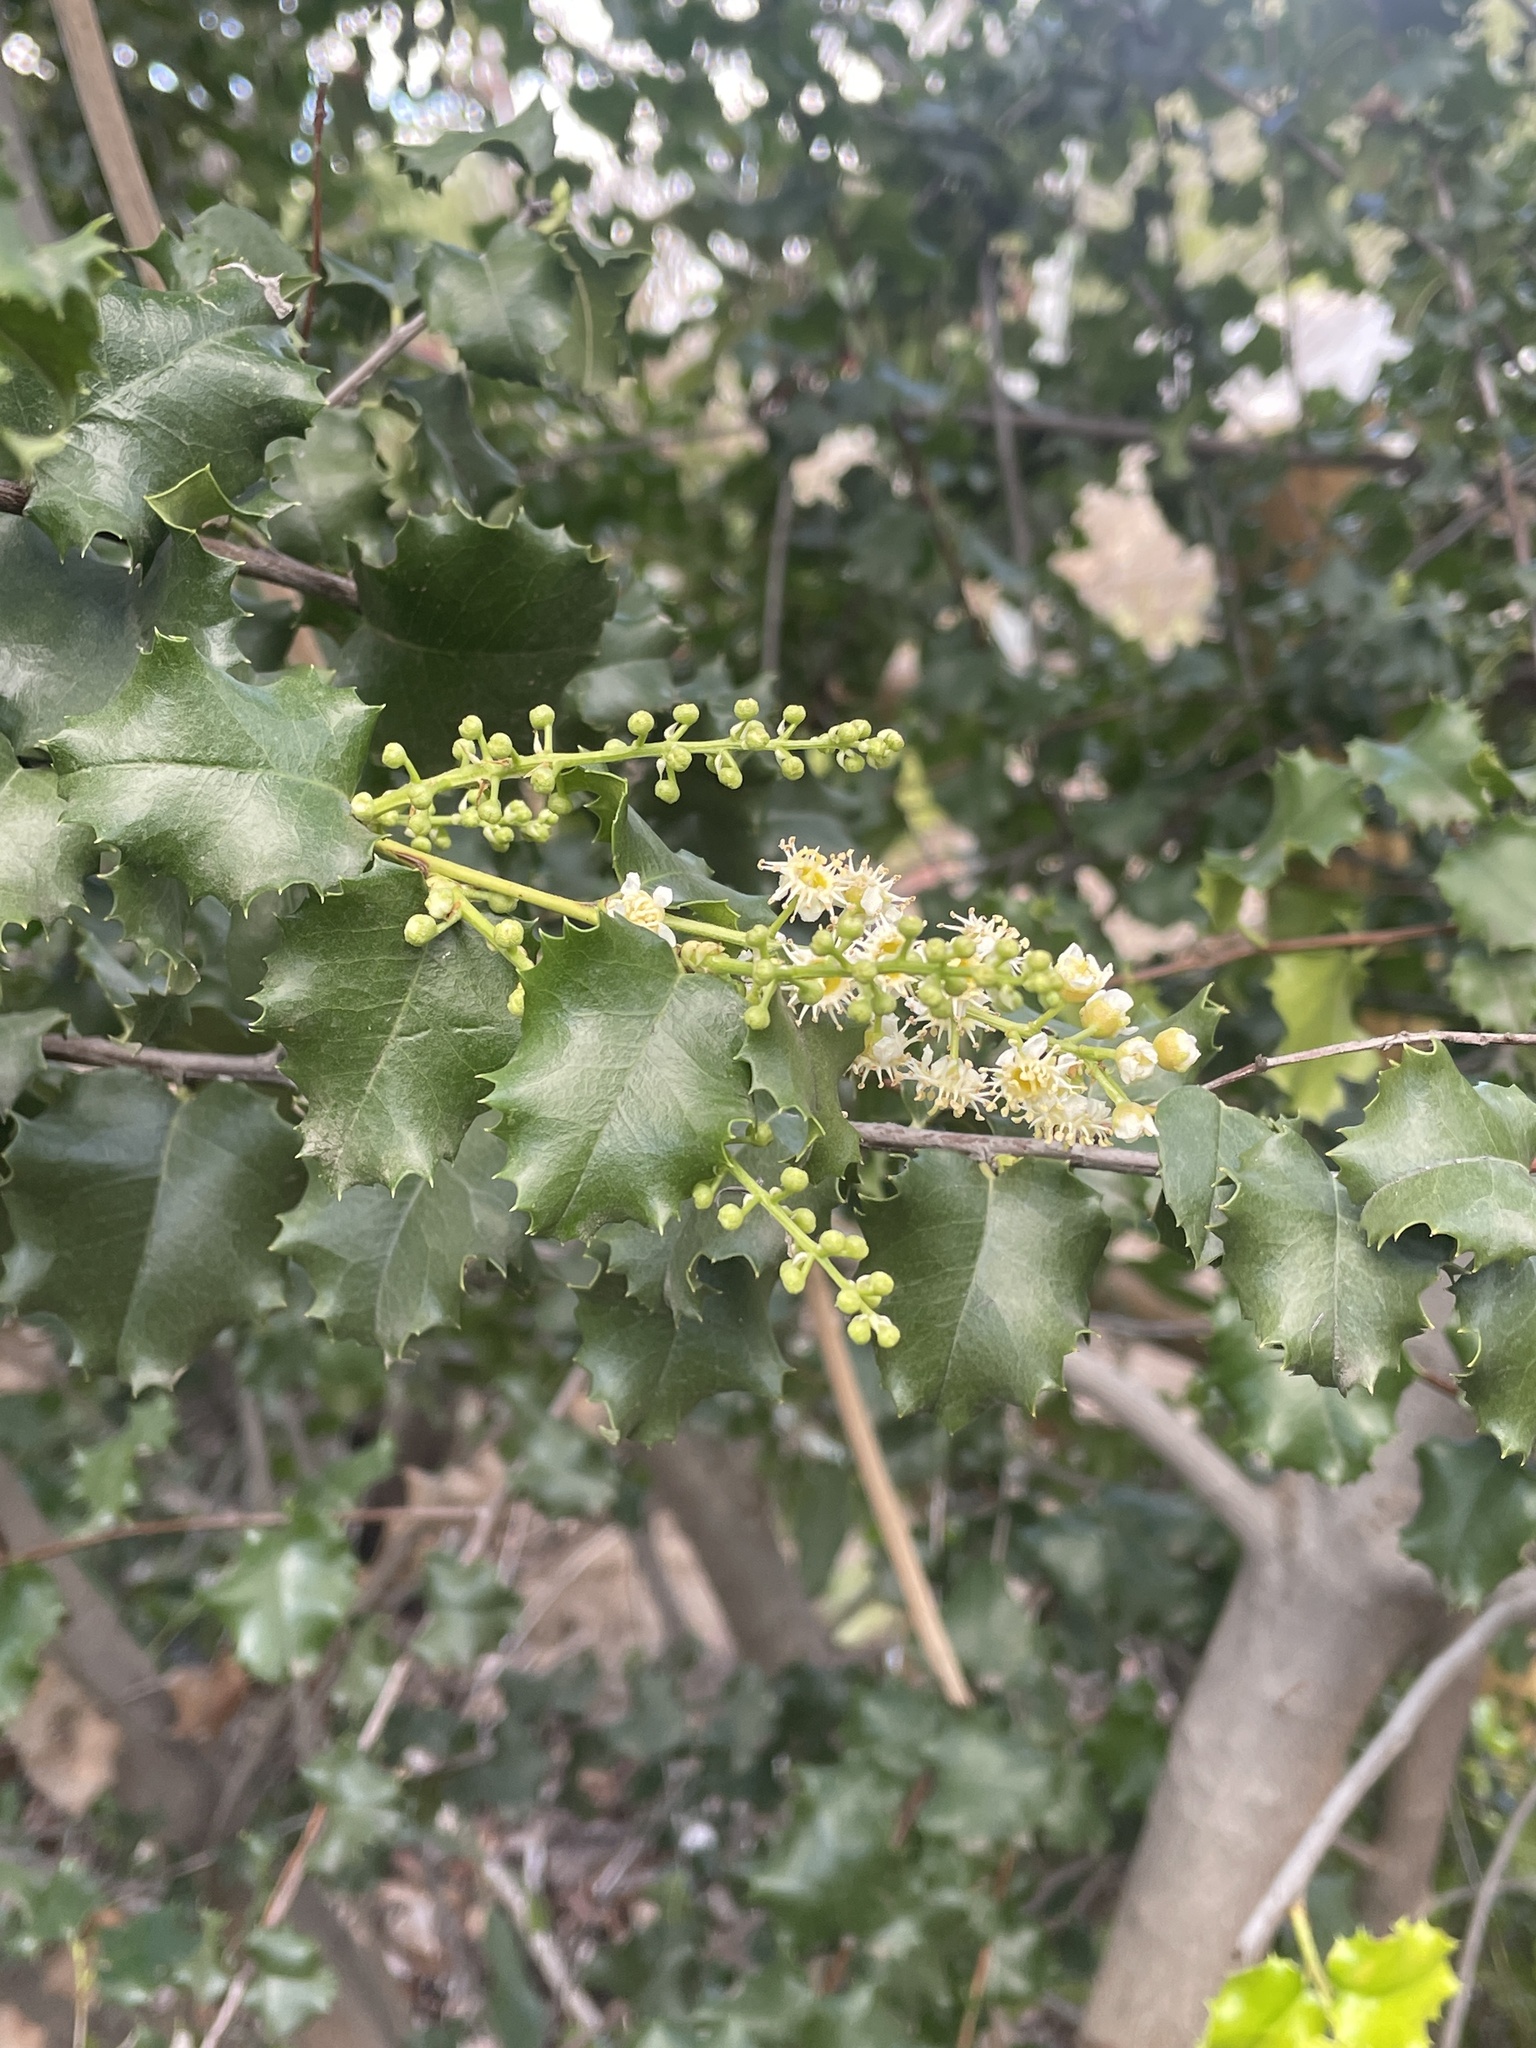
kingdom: Plantae
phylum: Tracheophyta
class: Magnoliopsida
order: Rosales
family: Rosaceae
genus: Prunus
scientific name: Prunus ilicifolia
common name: Hollyleaf cherry
